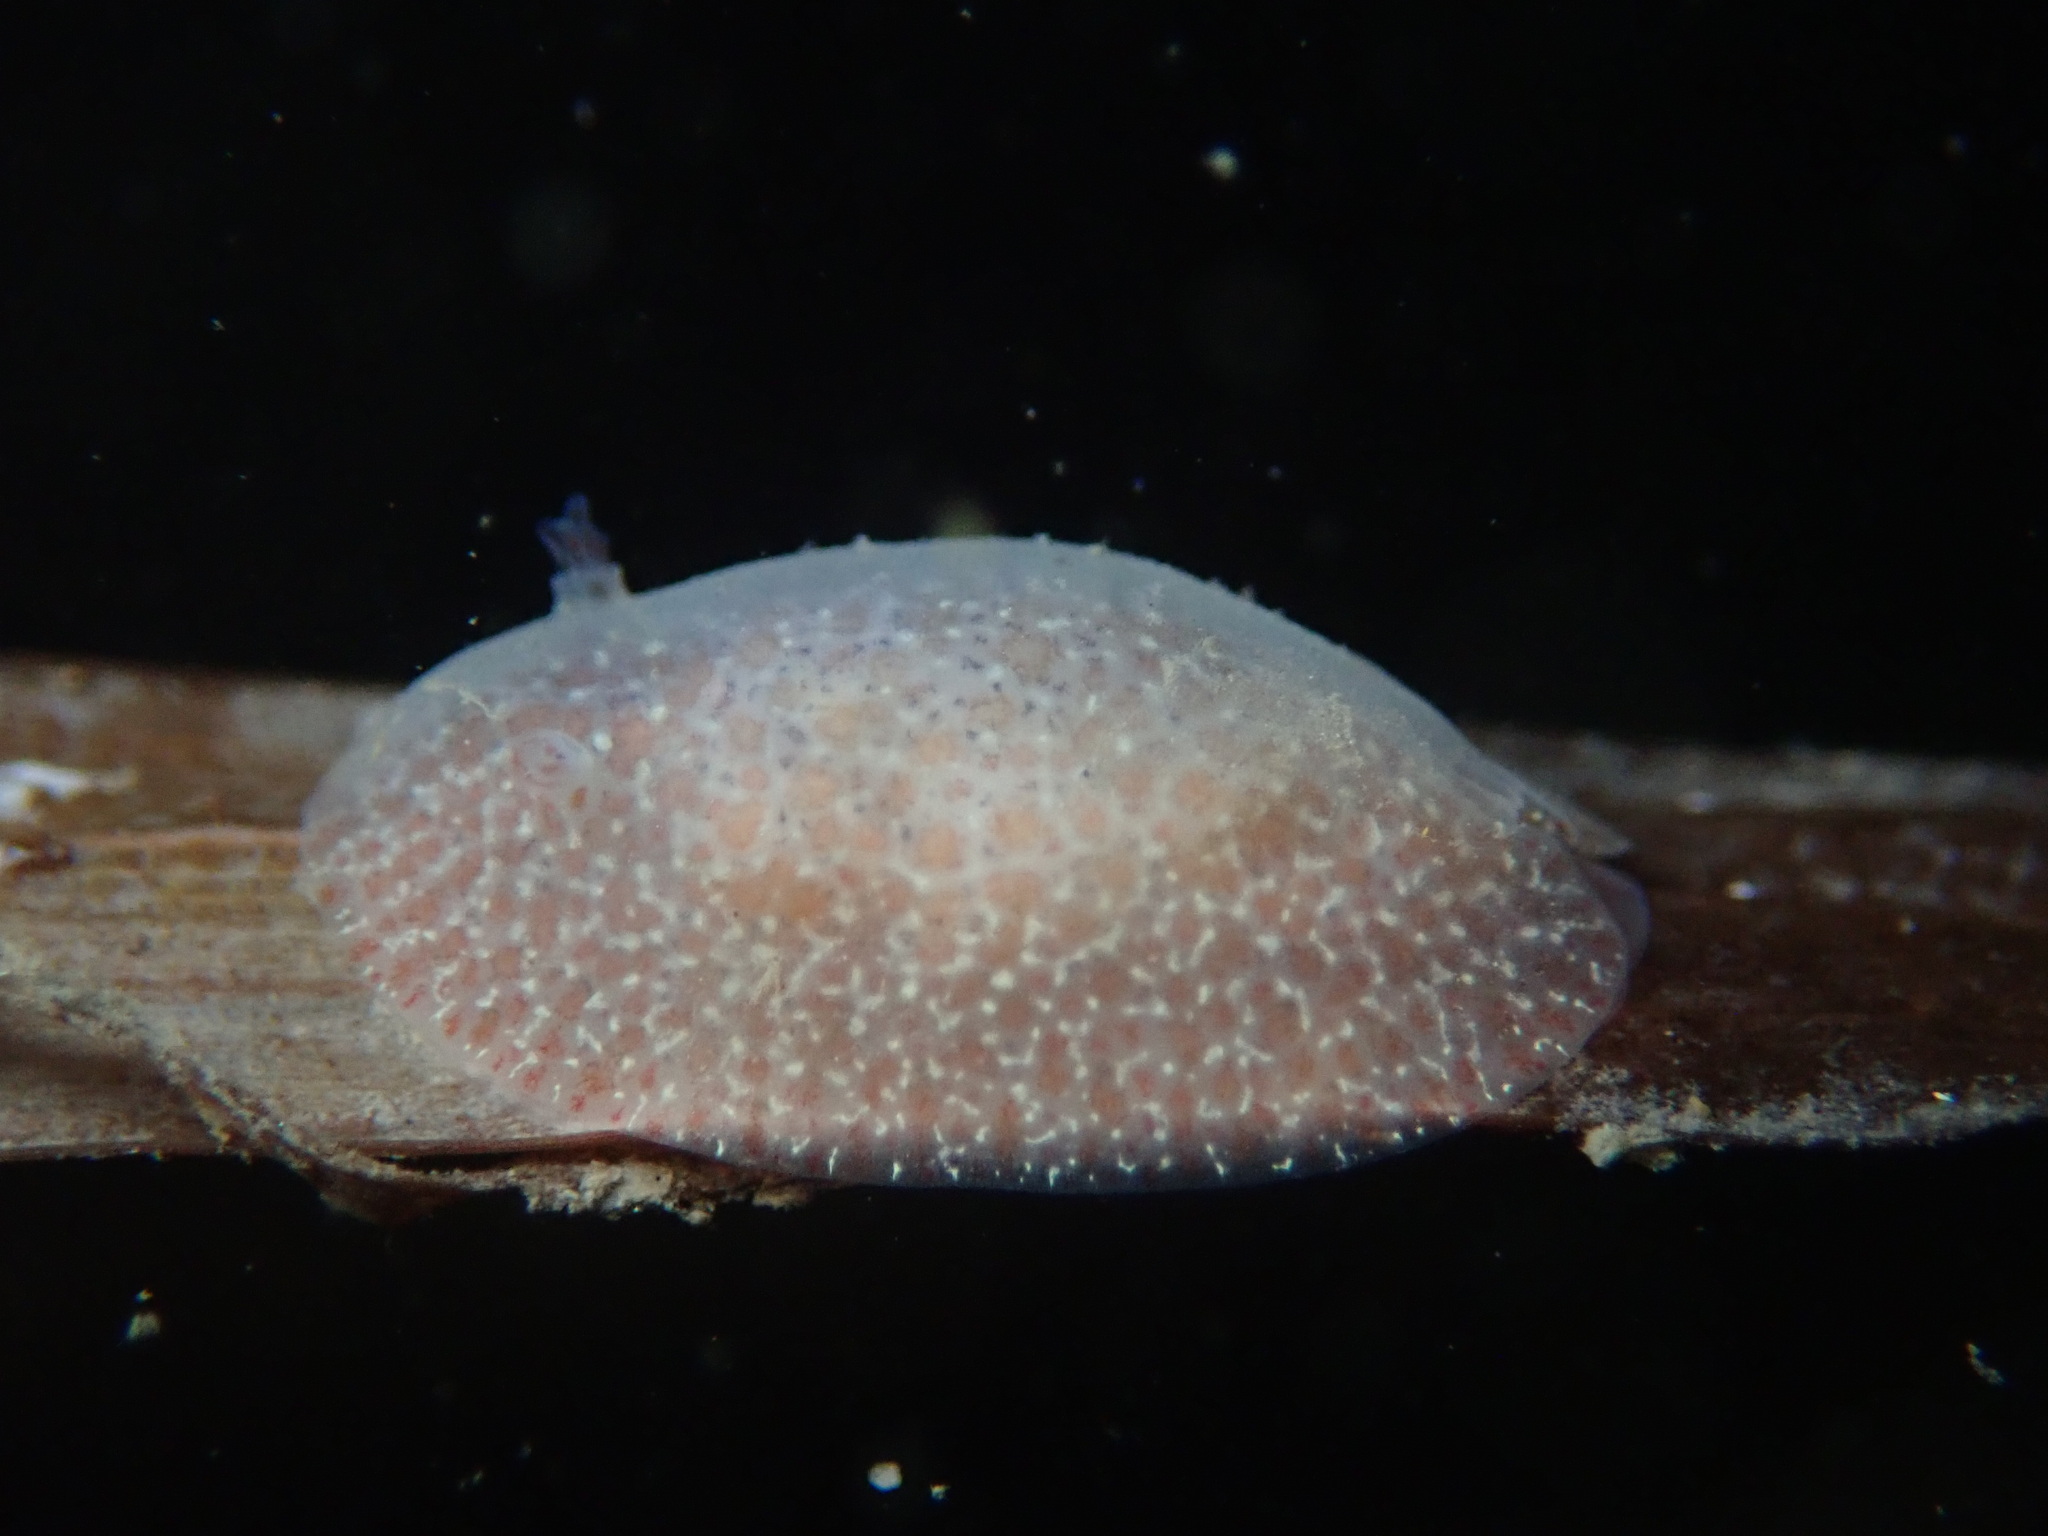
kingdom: Animalia
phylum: Mollusca
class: Gastropoda
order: Nudibranchia
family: Corambidae
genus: Corambe
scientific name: Corambe pacifica
